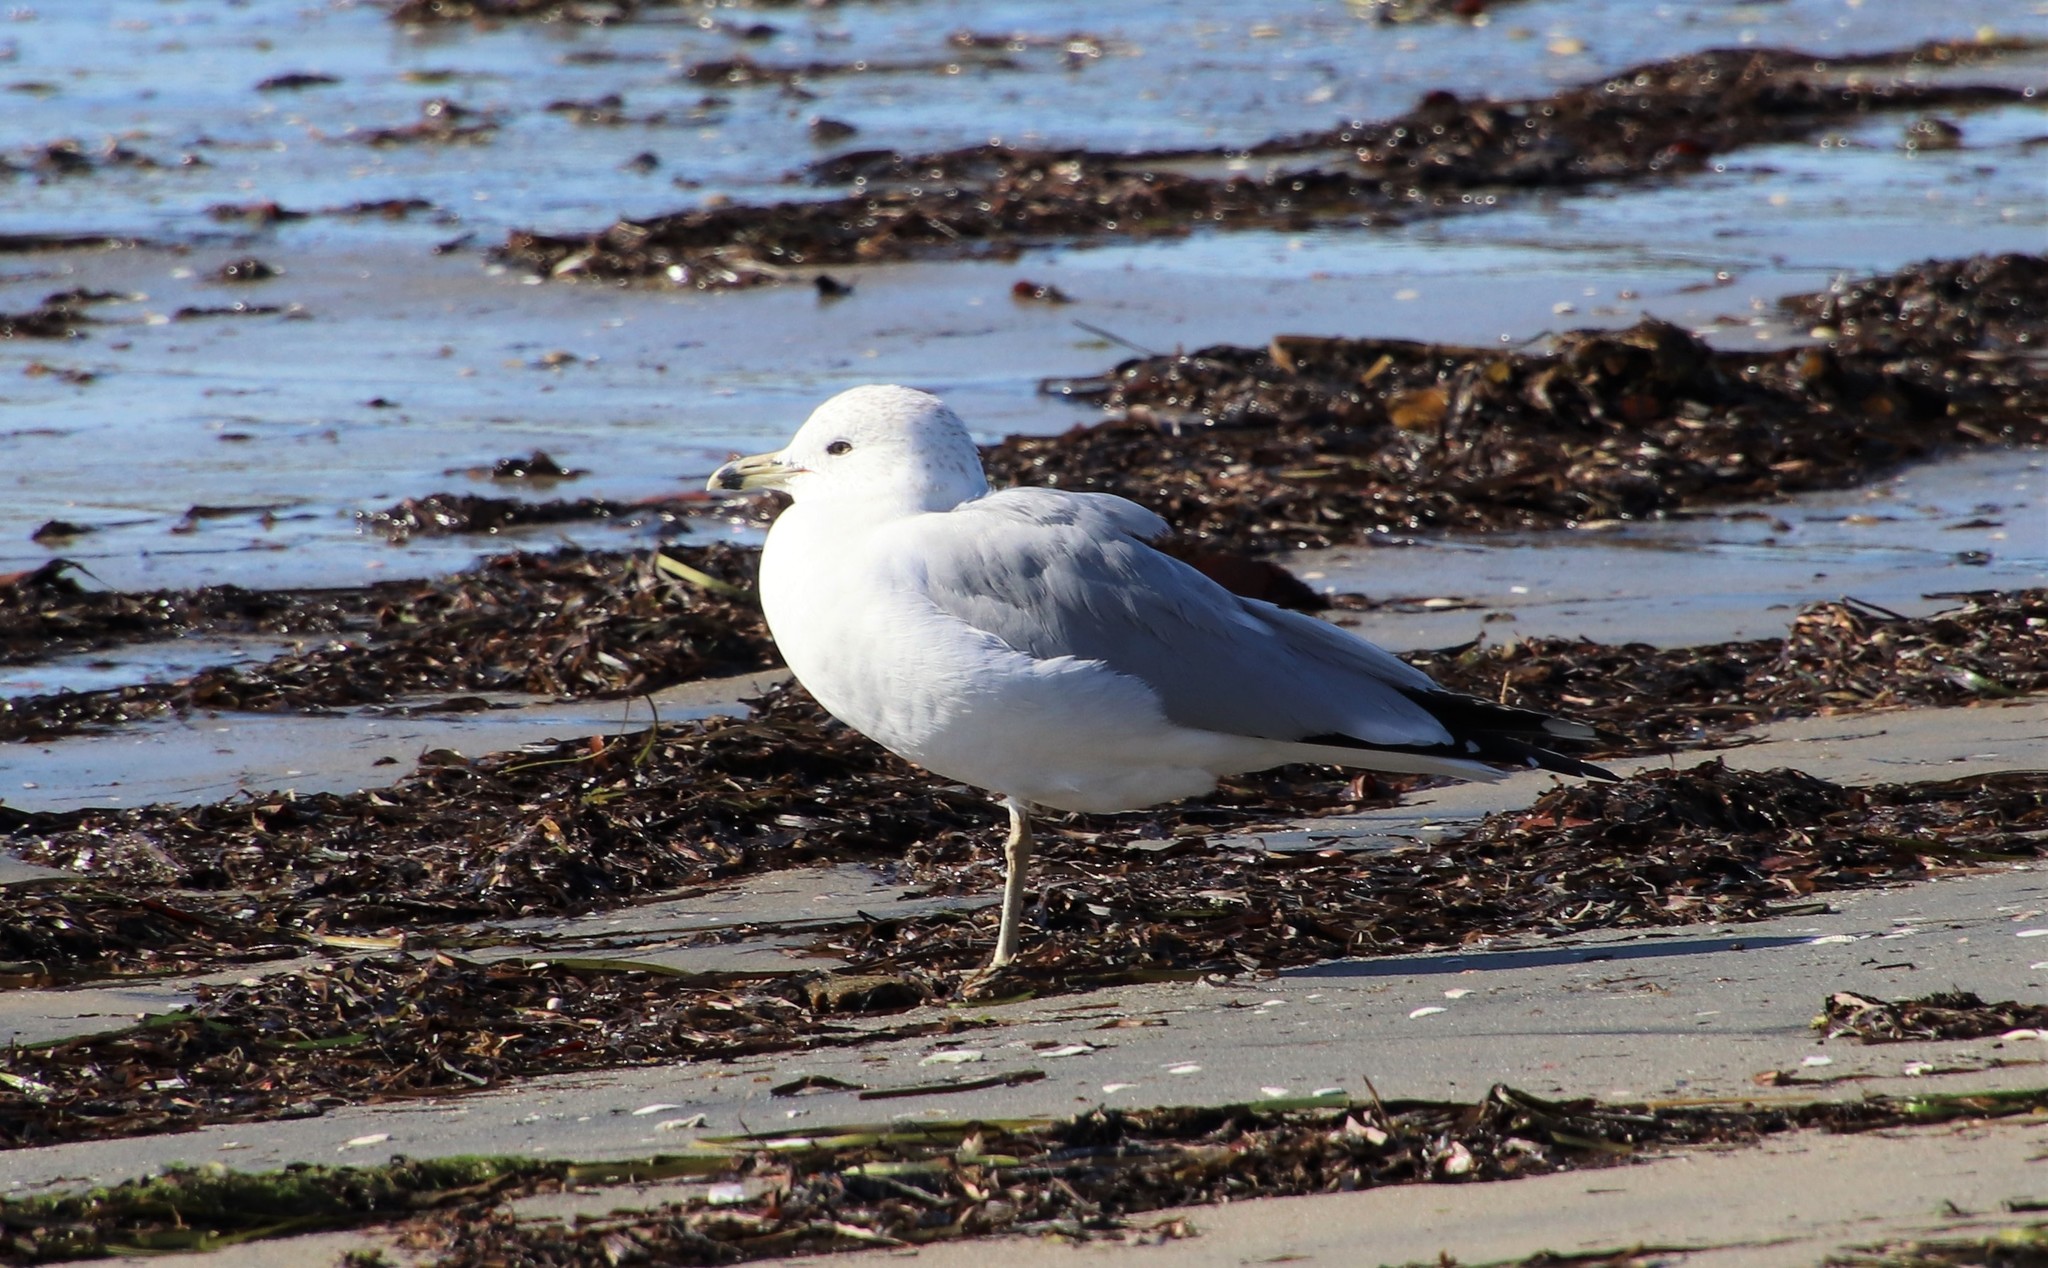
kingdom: Animalia
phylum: Chordata
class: Aves
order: Charadriiformes
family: Laridae
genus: Larus
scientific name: Larus delawarensis
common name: Ring-billed gull
